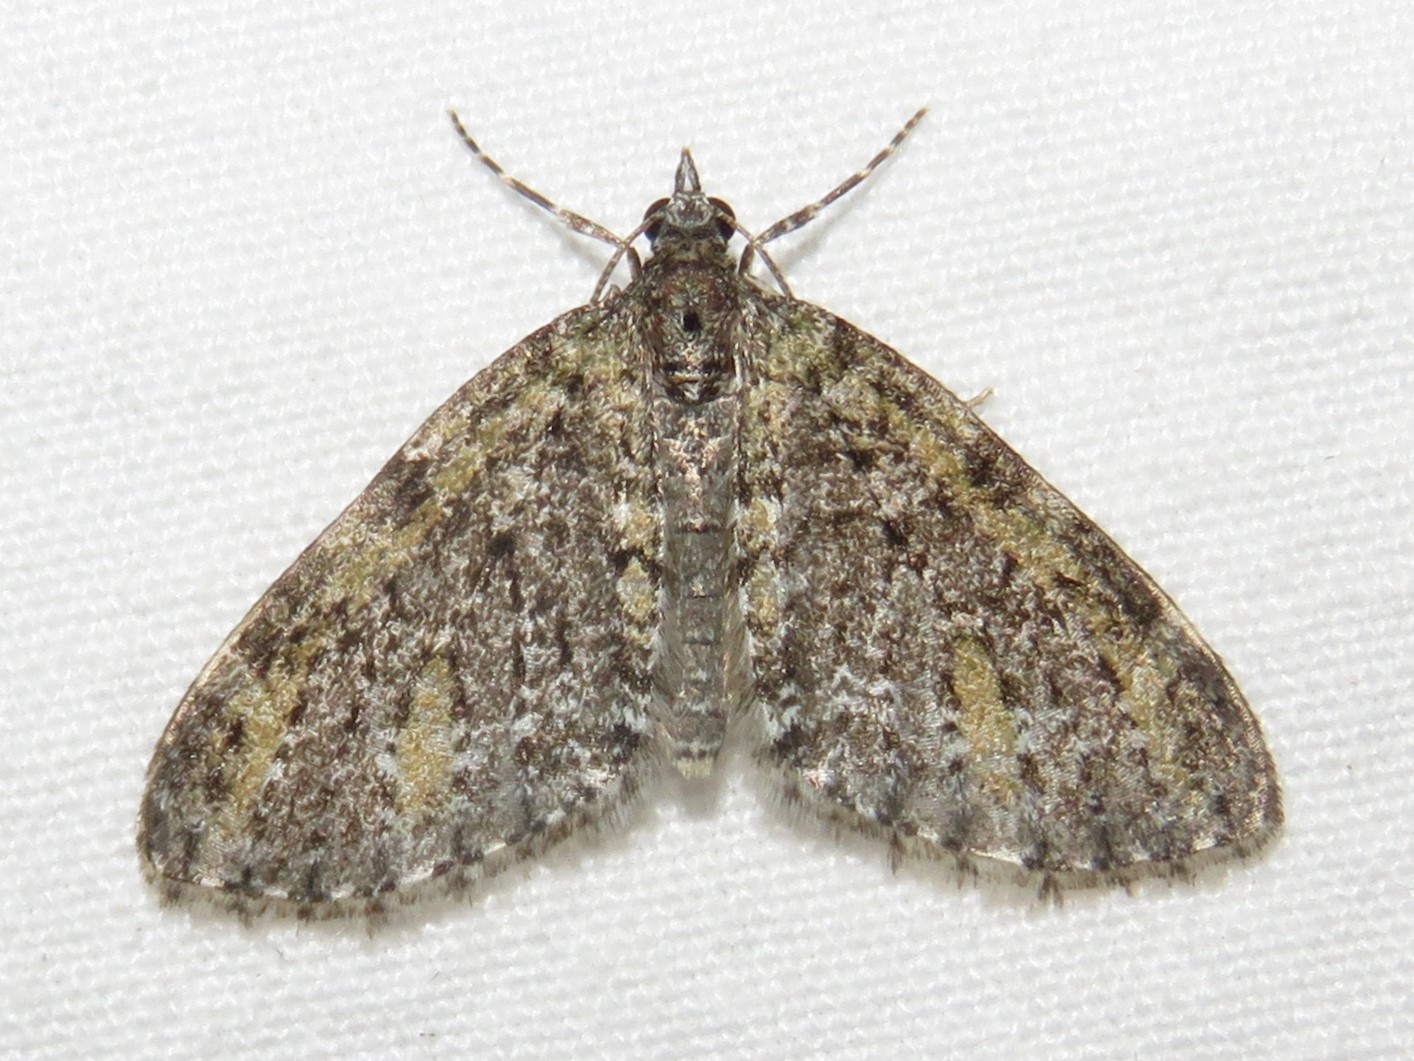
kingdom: Animalia
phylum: Arthropoda
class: Insecta
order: Lepidoptera
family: Geometridae
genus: Acasis
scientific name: Acasis viridata
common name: Olive-and-black carpet moth
